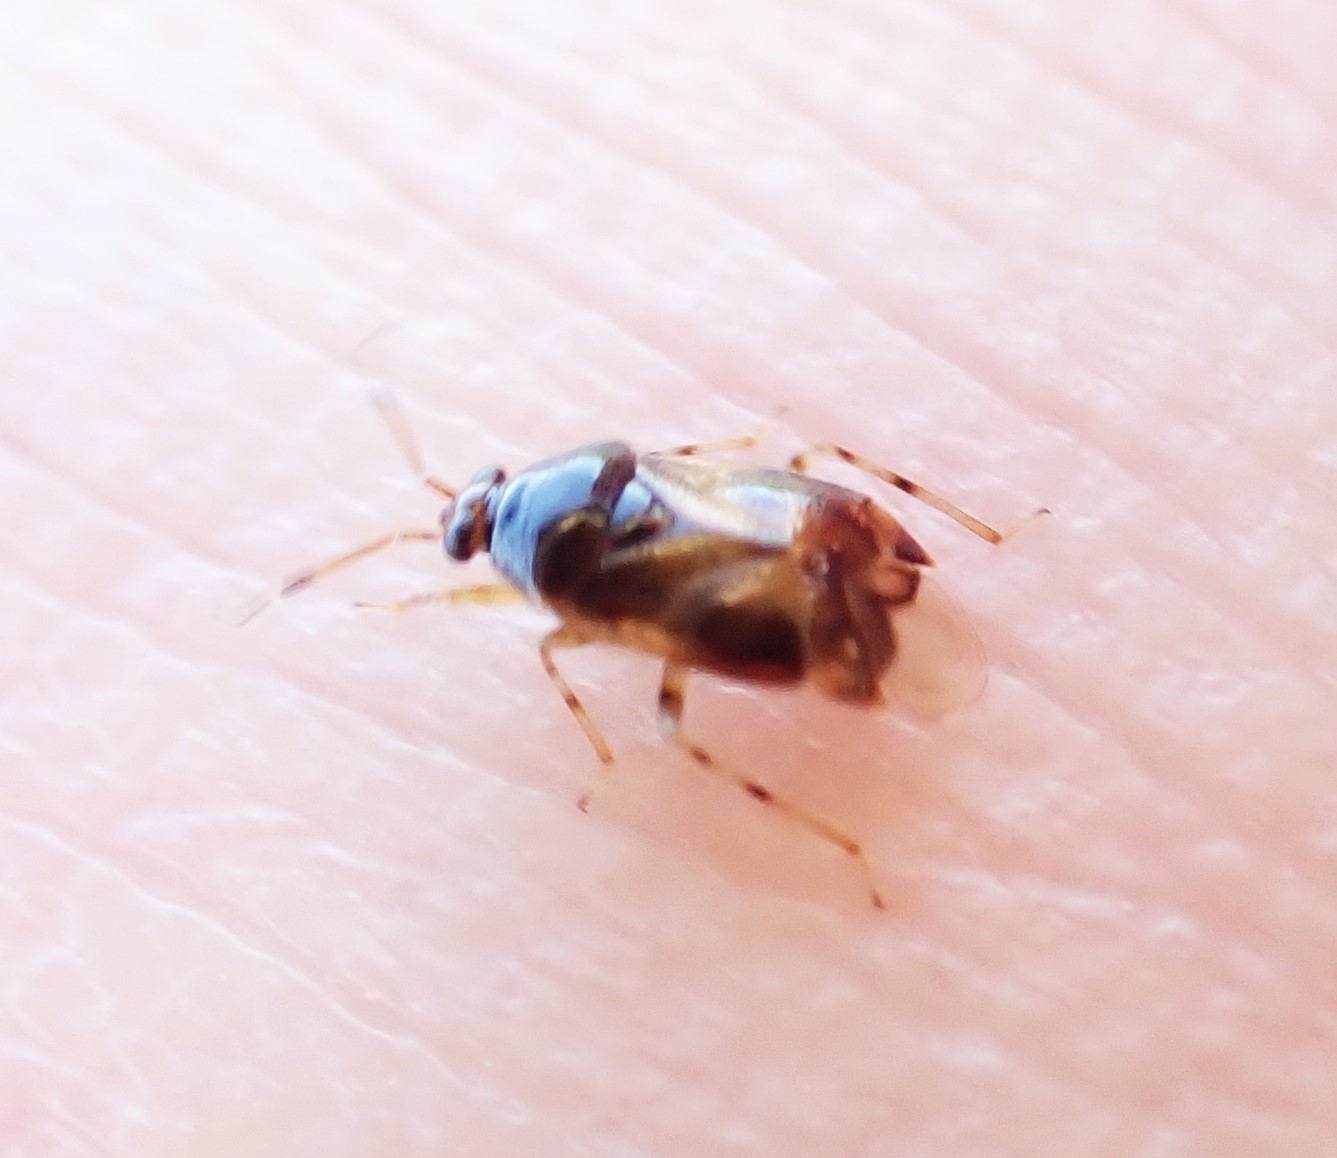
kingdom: Animalia
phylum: Arthropoda
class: Insecta
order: Hemiptera
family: Miridae
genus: Deraeocoris
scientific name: Deraeocoris lutescens
